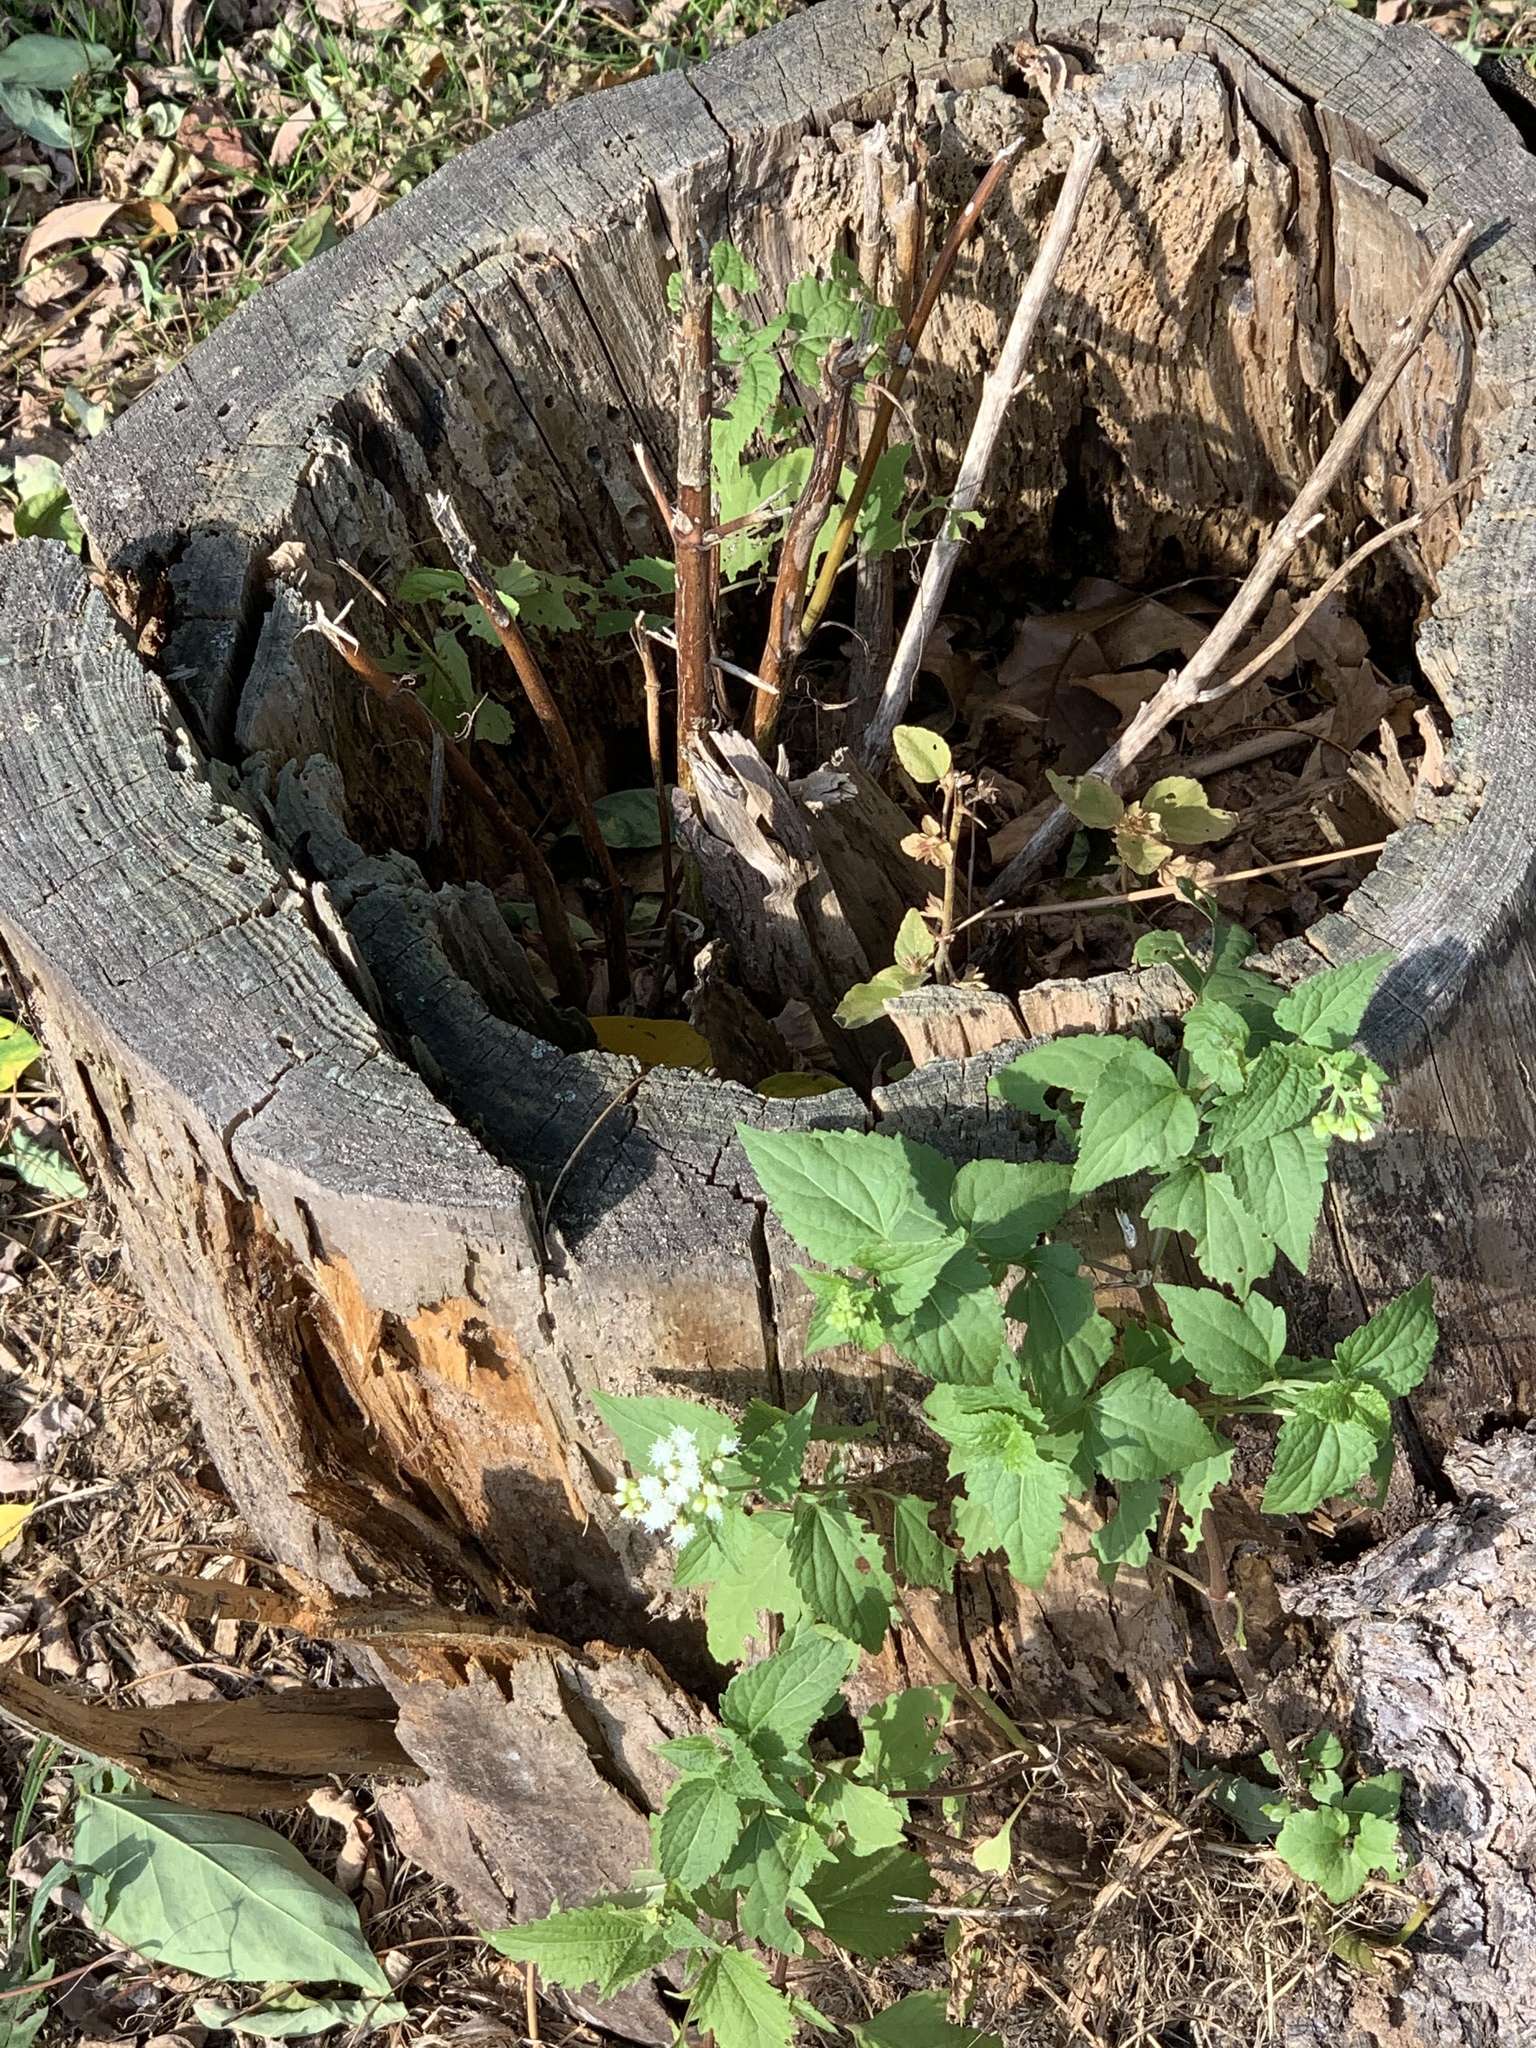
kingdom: Plantae
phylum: Tracheophyta
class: Magnoliopsida
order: Asterales
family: Asteraceae
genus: Ageratina
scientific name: Ageratina altissima
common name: White snakeroot
